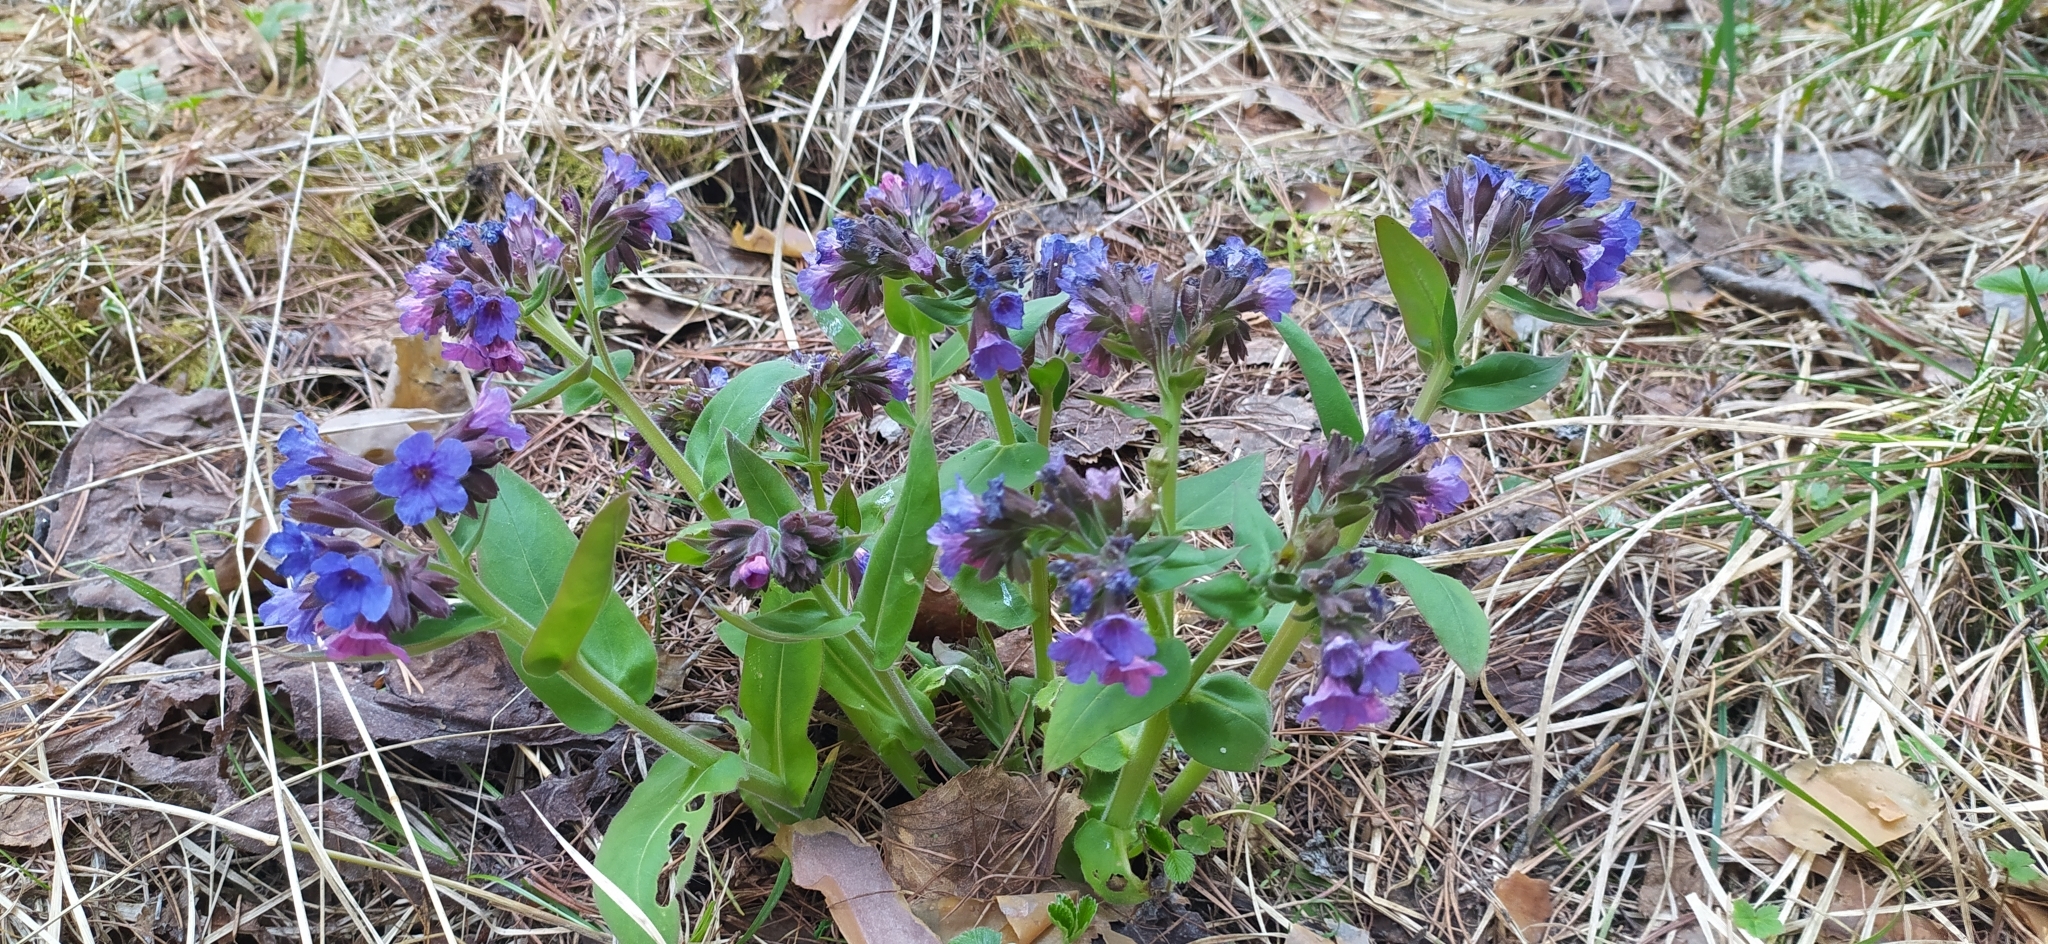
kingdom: Plantae
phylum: Tracheophyta
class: Magnoliopsida
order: Boraginales
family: Boraginaceae
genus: Pulmonaria
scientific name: Pulmonaria mollis
